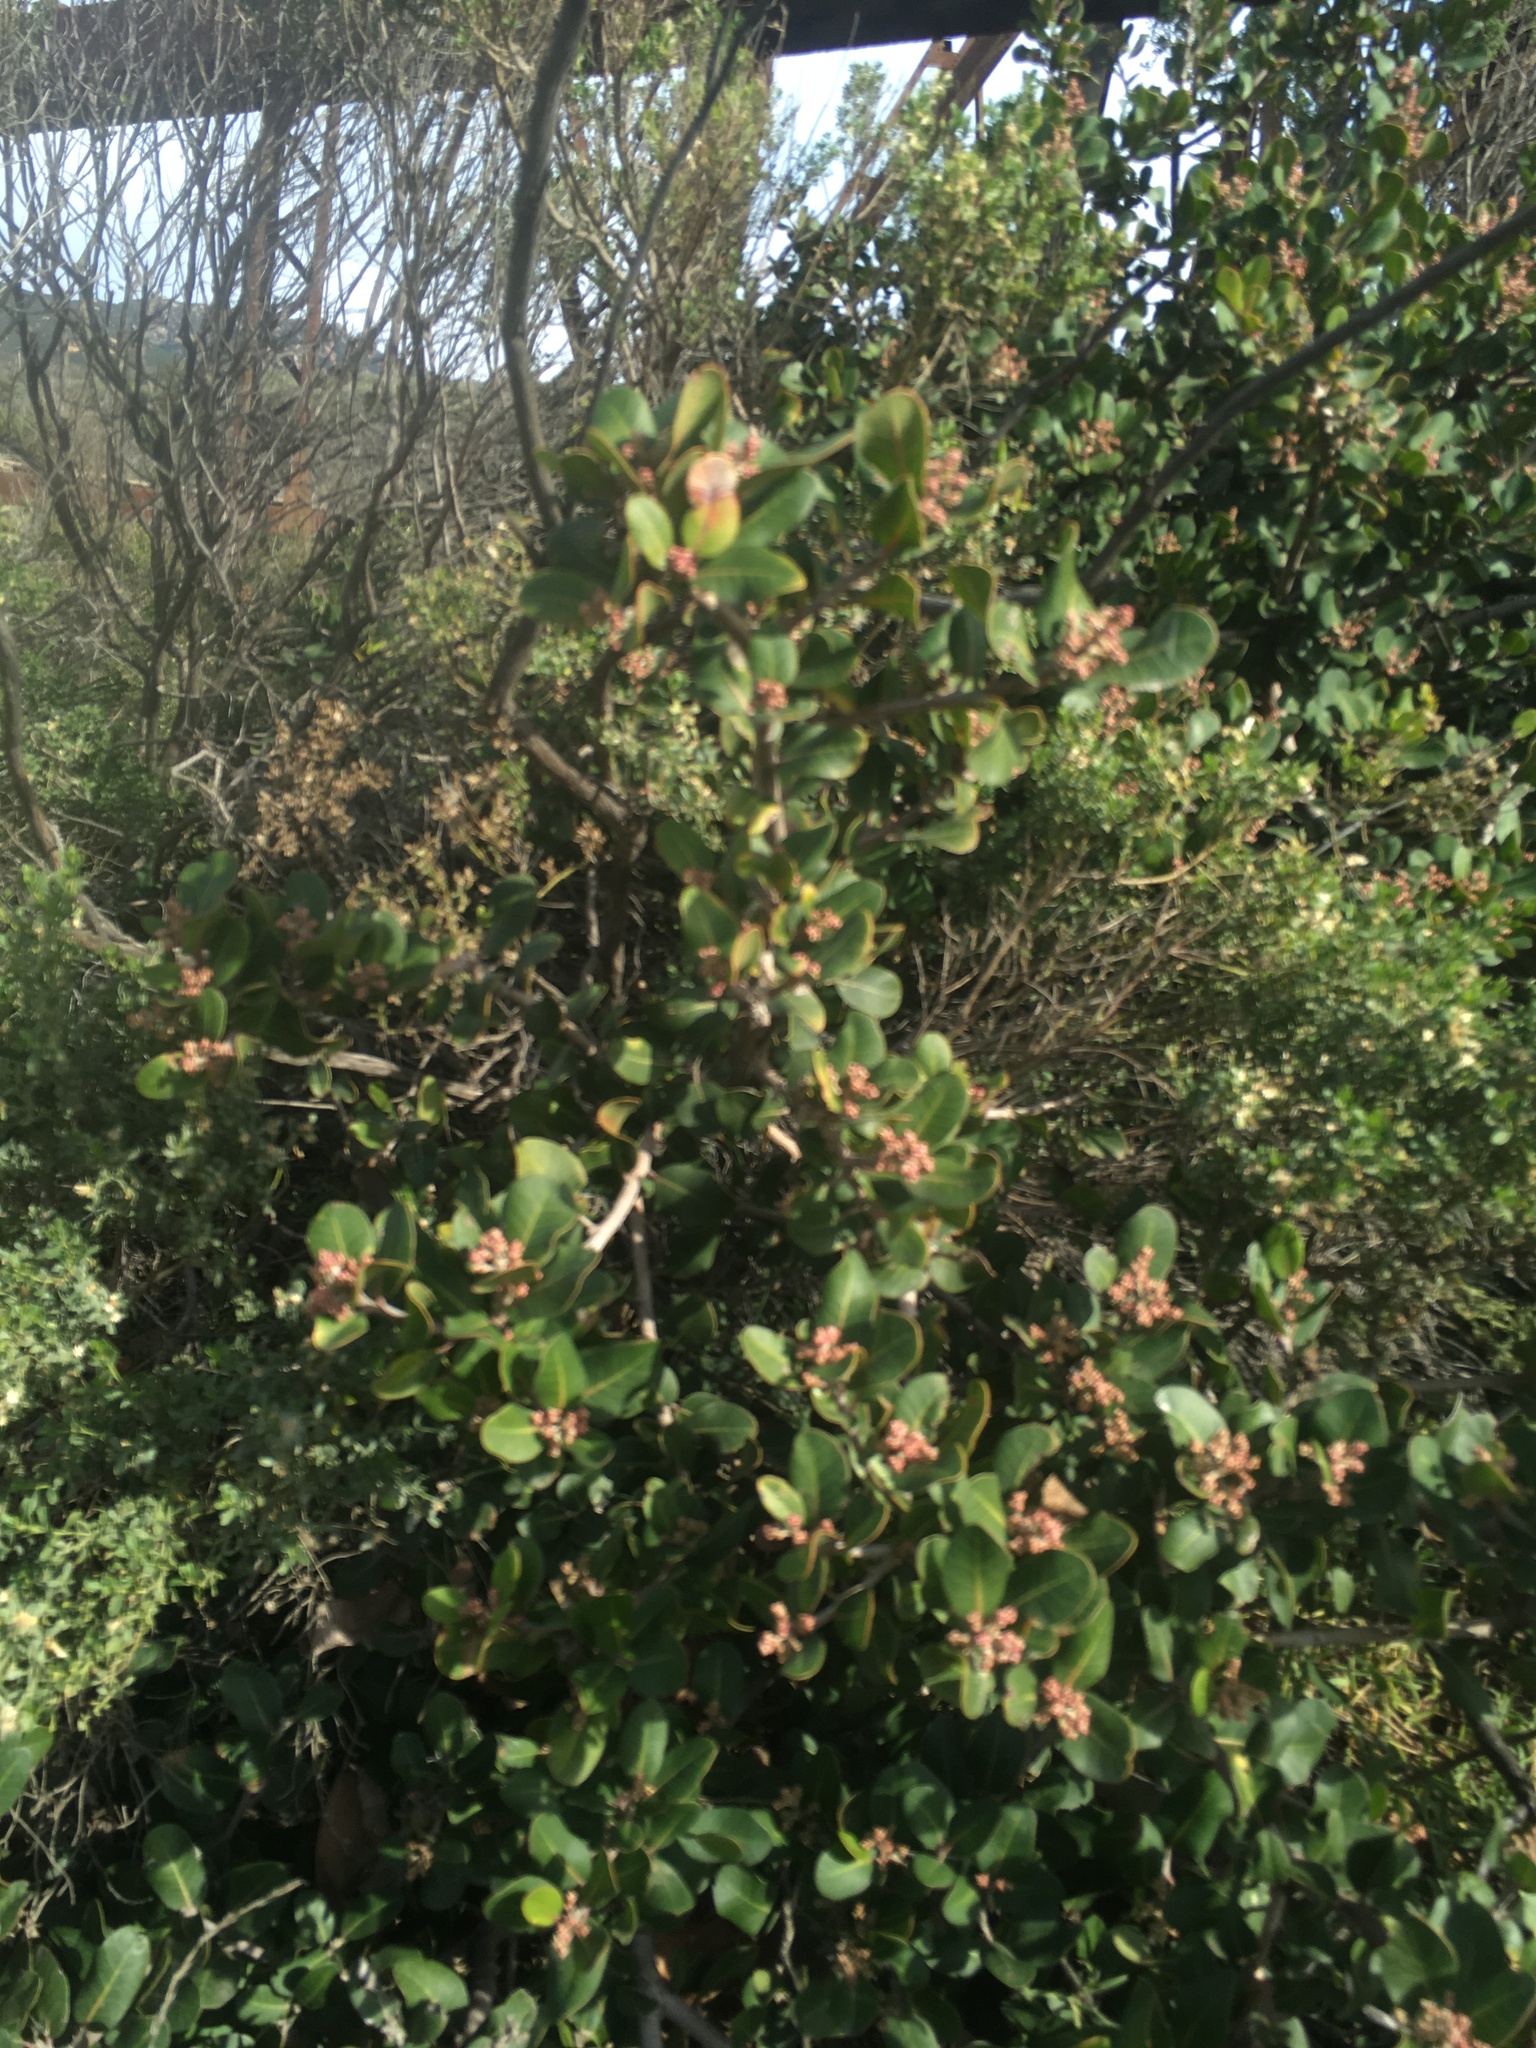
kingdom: Plantae
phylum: Tracheophyta
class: Magnoliopsida
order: Sapindales
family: Anacardiaceae
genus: Rhus
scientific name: Rhus integrifolia
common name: Lemonade sumac
